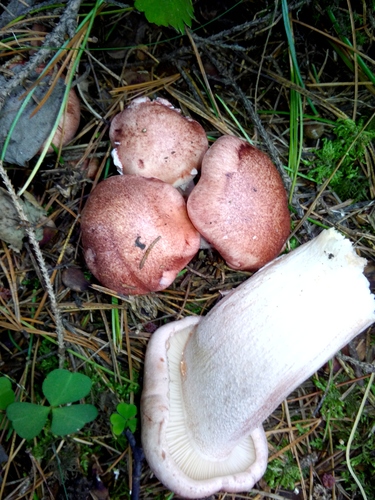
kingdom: Fungi
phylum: Basidiomycota
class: Agaricomycetes
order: Agaricales
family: Hygrophoraceae
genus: Hygrophorus
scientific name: Hygrophorus erubescens
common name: Blotched woodwax
